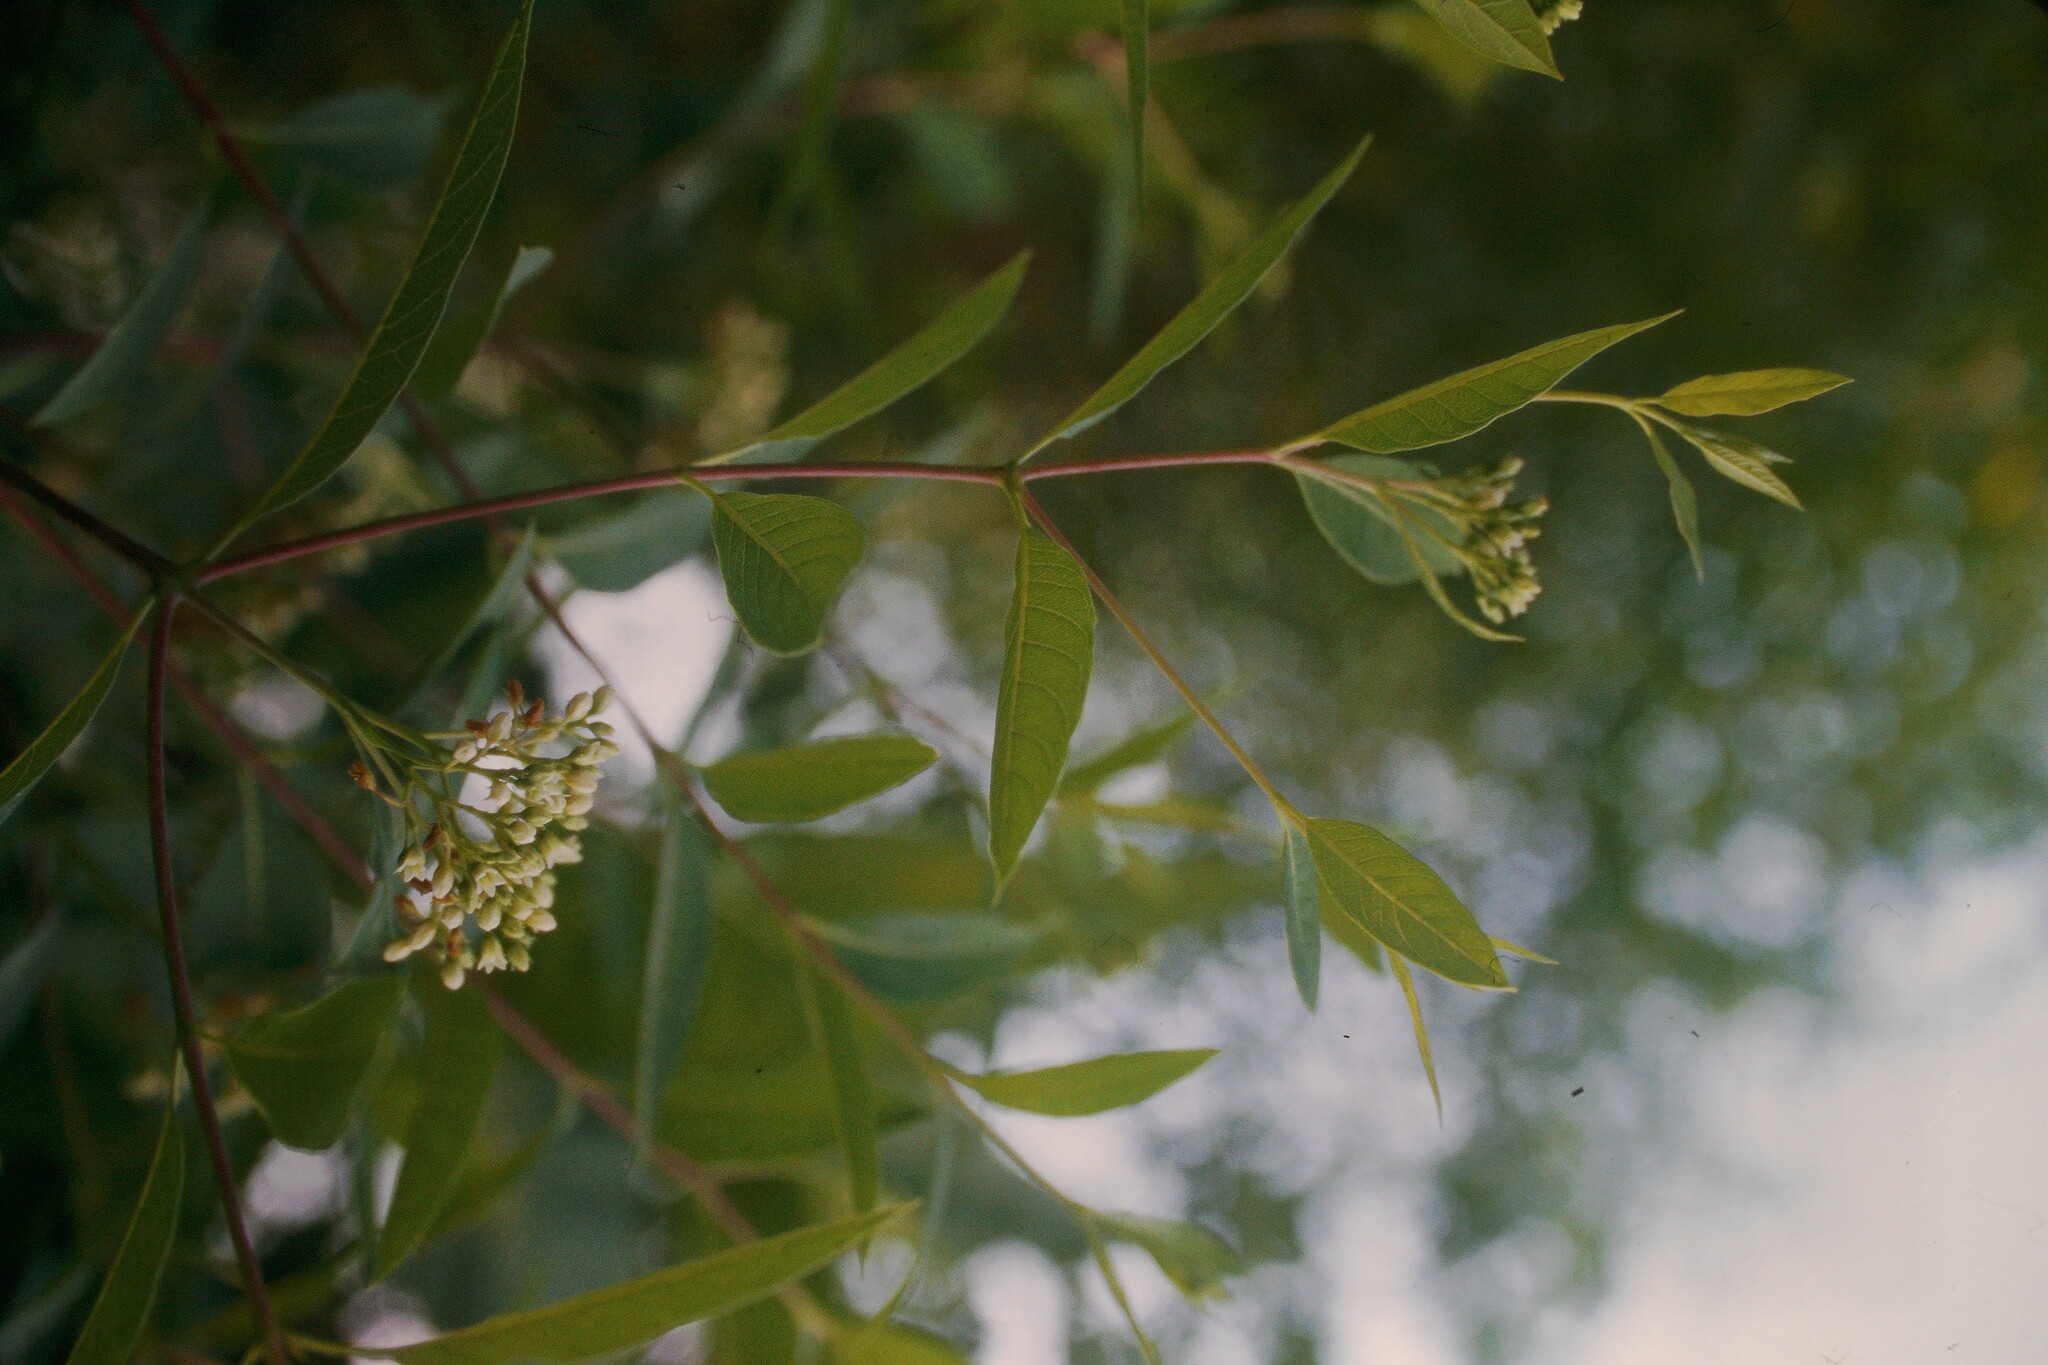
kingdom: Plantae
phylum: Tracheophyta
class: Magnoliopsida
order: Gentianales
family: Apocynaceae
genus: Apocynum
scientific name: Apocynum cannabinum
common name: Hemp dogbane
